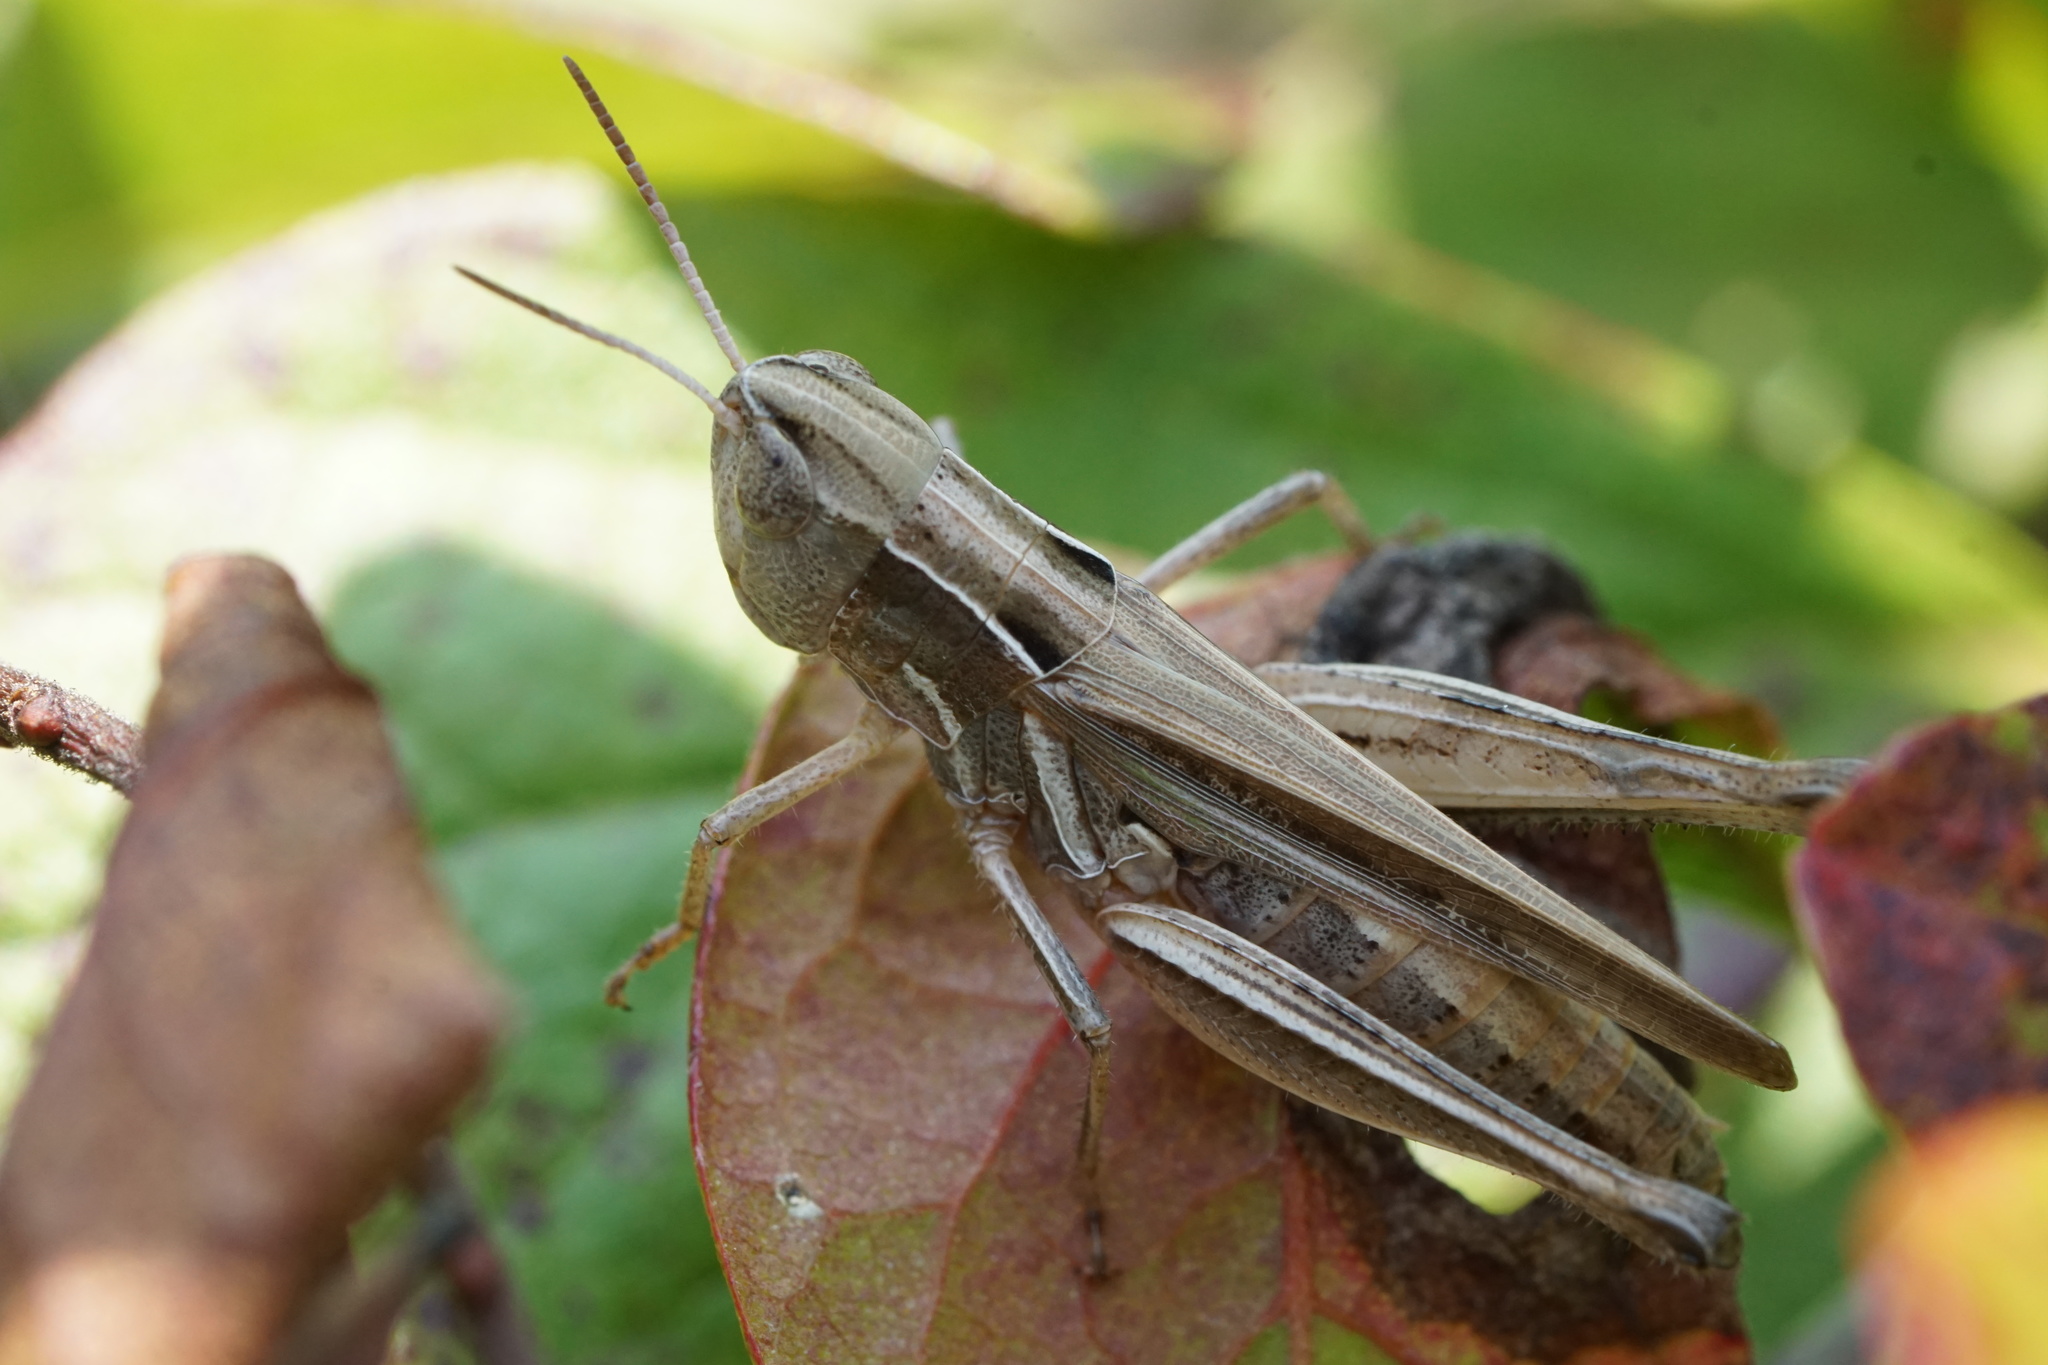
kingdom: Animalia
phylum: Arthropoda
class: Insecta
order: Orthoptera
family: Acrididae
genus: Orphulella
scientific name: Orphulella speciosa
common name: Pasture grasshopper
